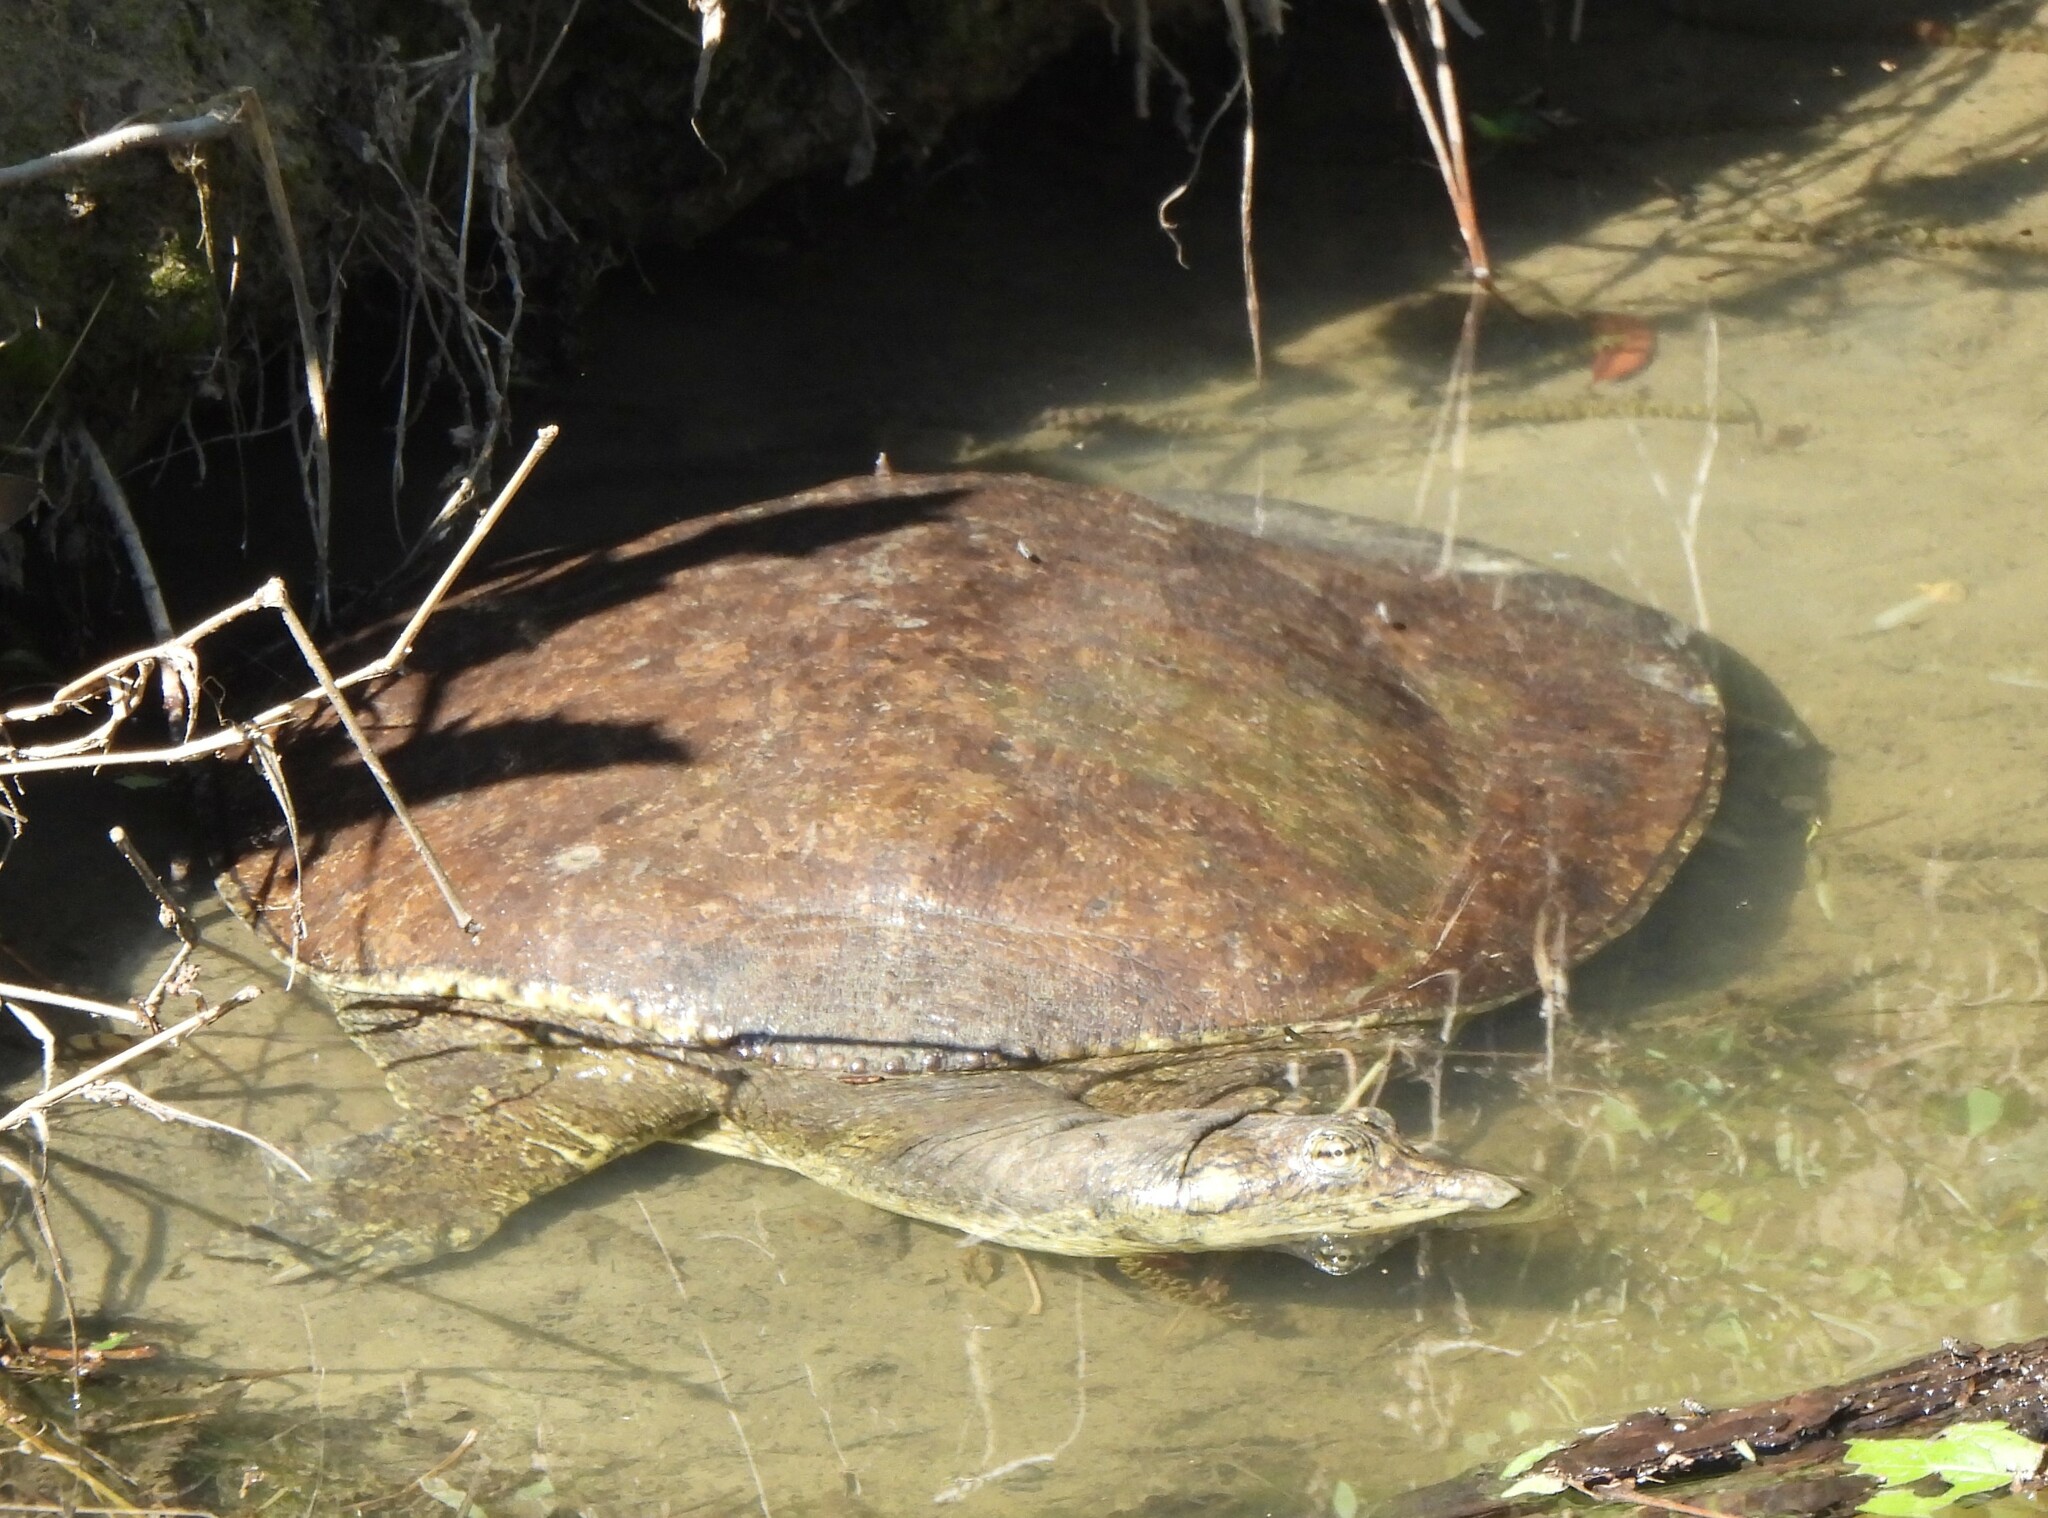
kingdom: Animalia
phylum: Chordata
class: Testudines
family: Trionychidae
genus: Apalone
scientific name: Apalone spinifera
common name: Spiny softshell turtle
